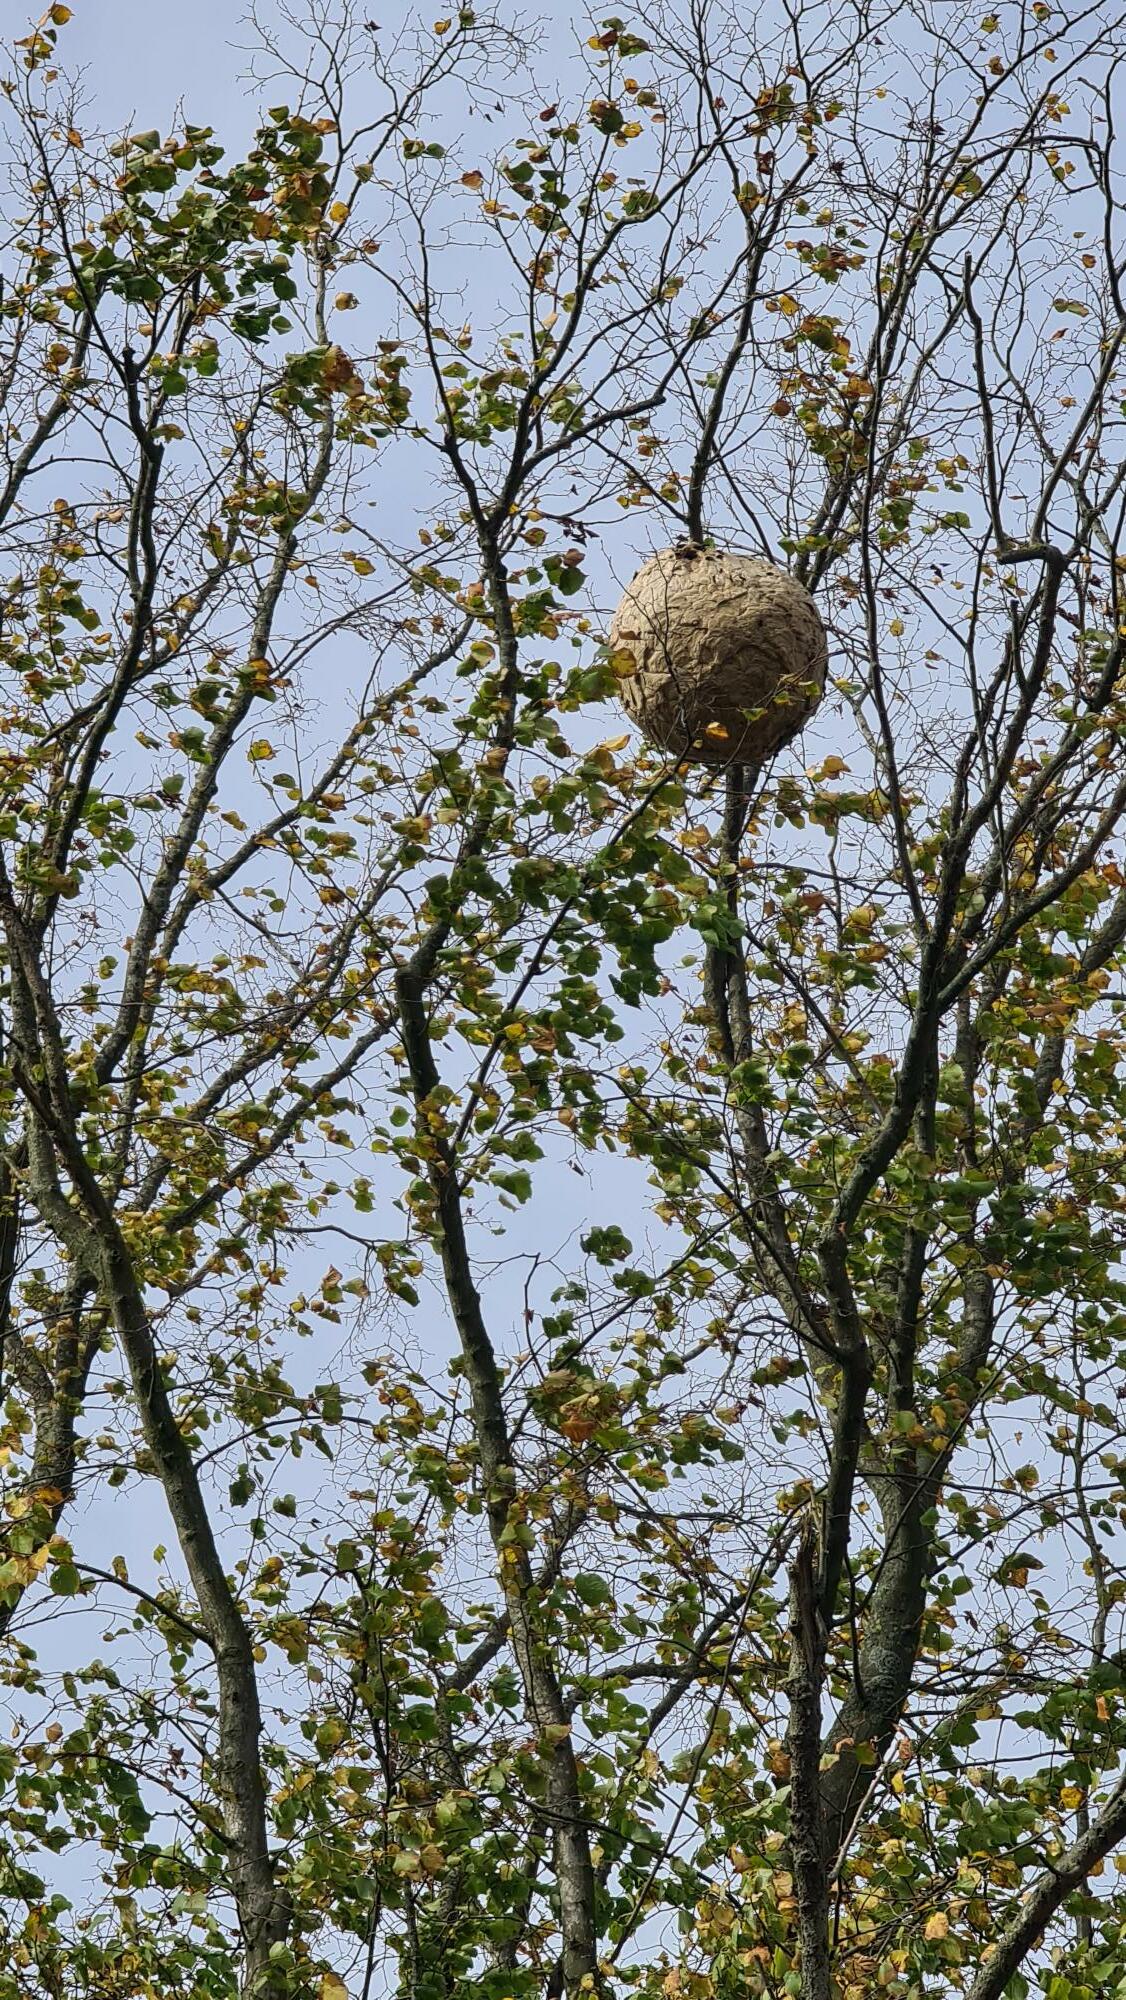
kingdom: Animalia
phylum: Arthropoda
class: Insecta
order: Hymenoptera
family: Vespidae
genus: Vespa
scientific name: Vespa velutina
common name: Asian hornet
